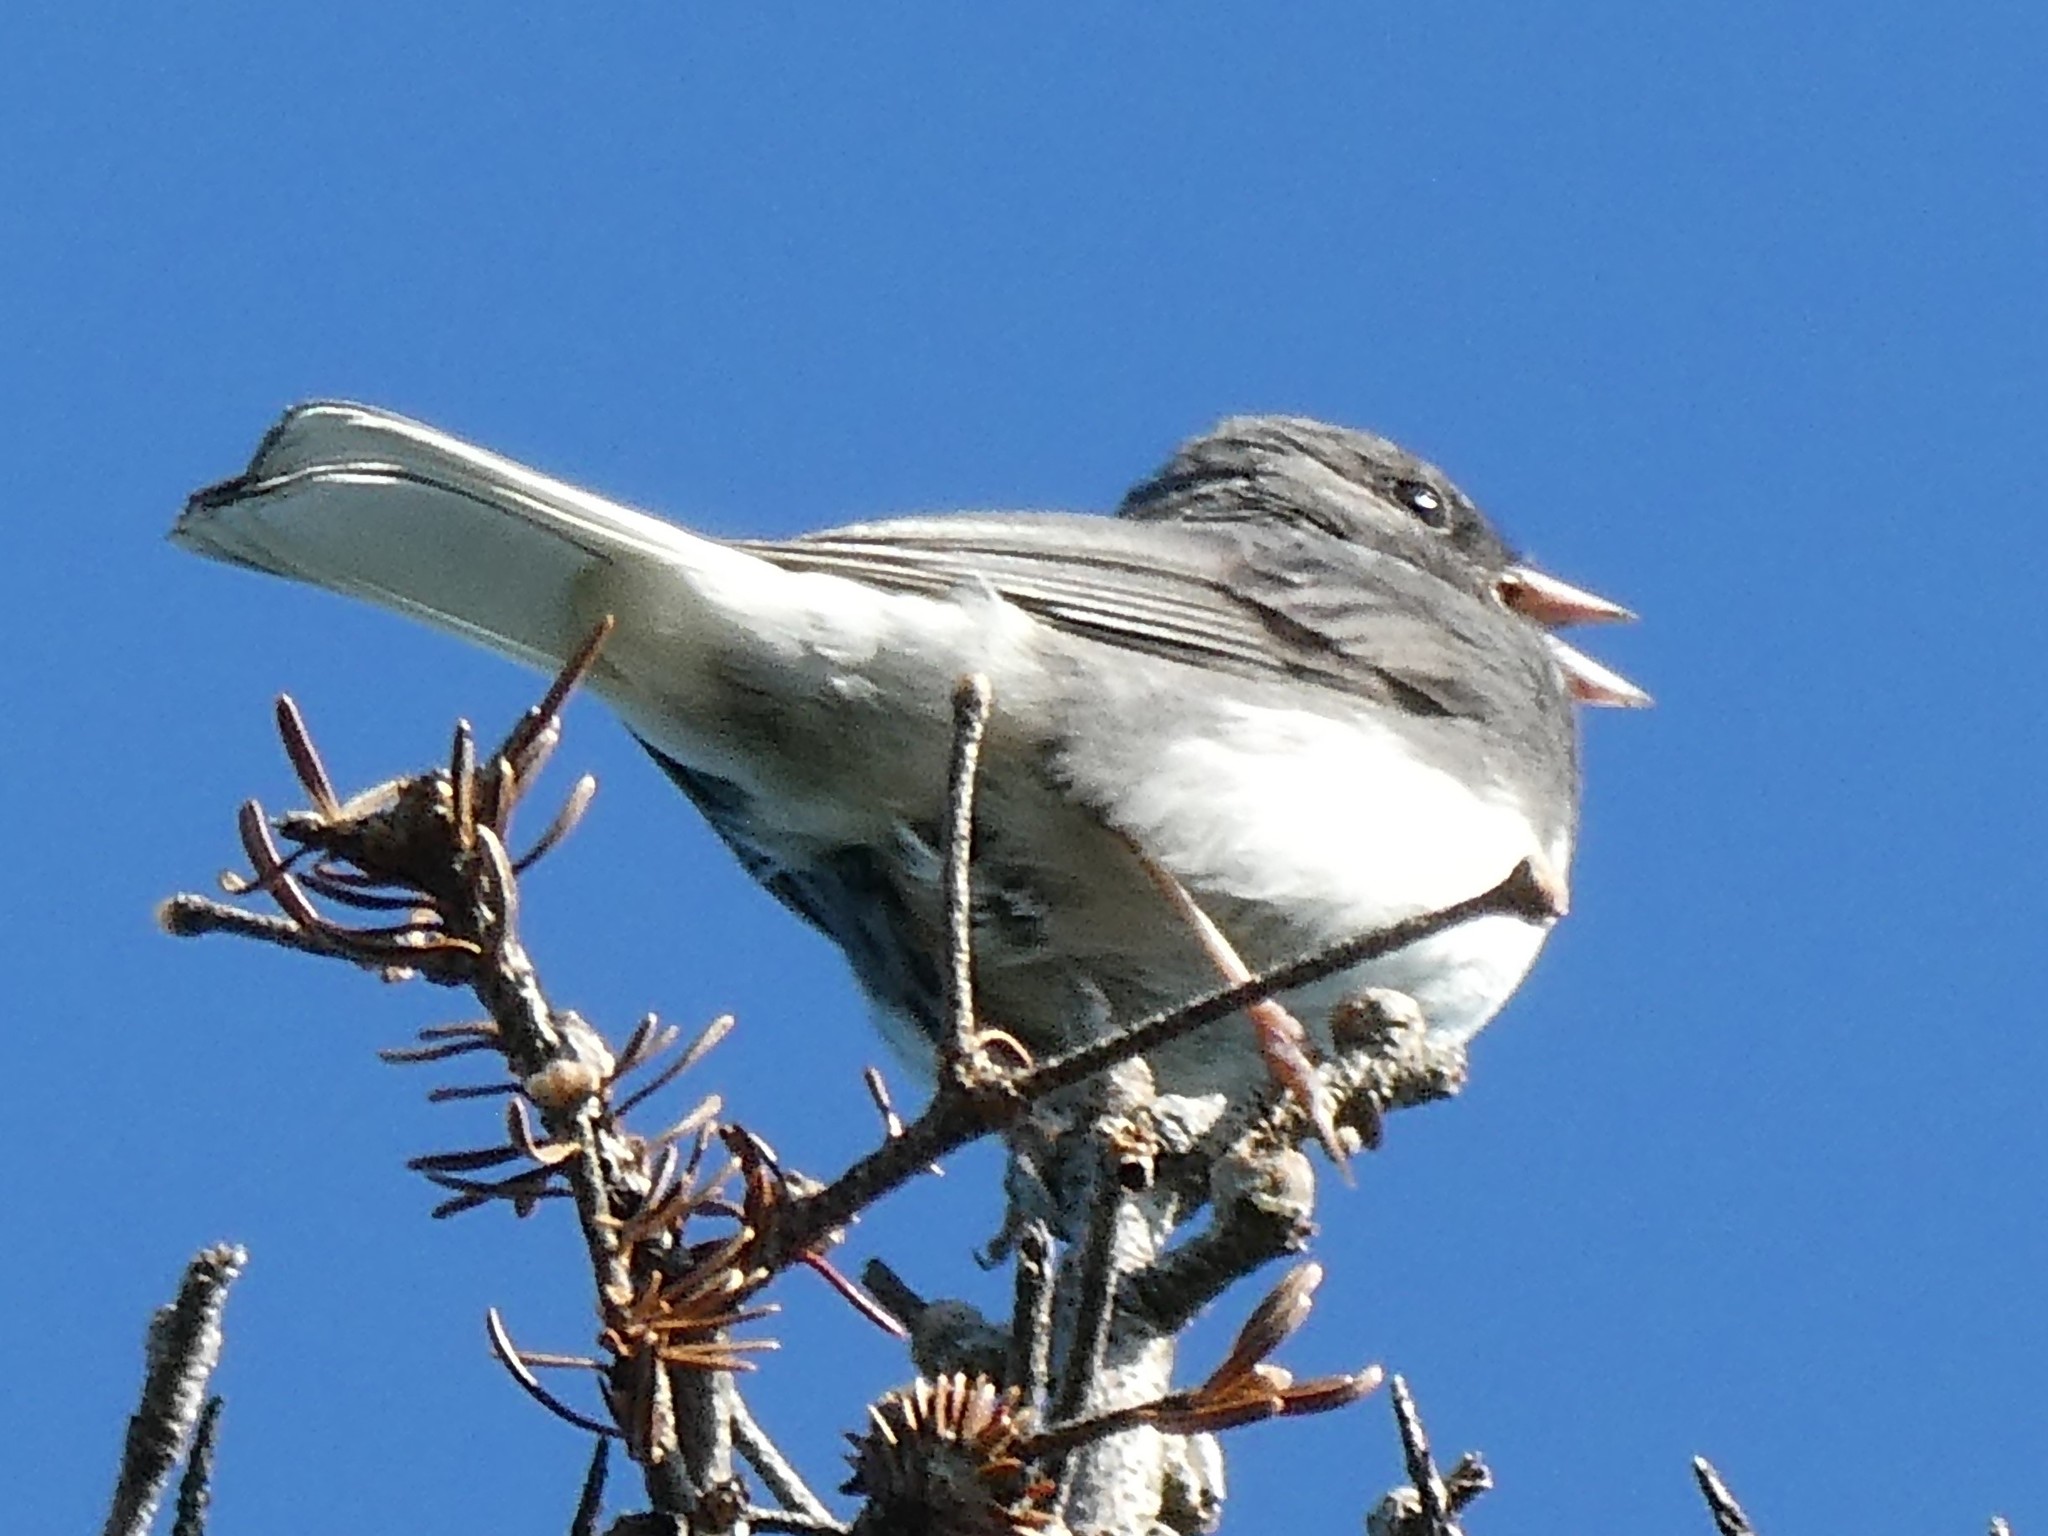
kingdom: Animalia
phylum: Chordata
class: Aves
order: Passeriformes
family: Passerellidae
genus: Junco
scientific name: Junco hyemalis
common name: Dark-eyed junco
